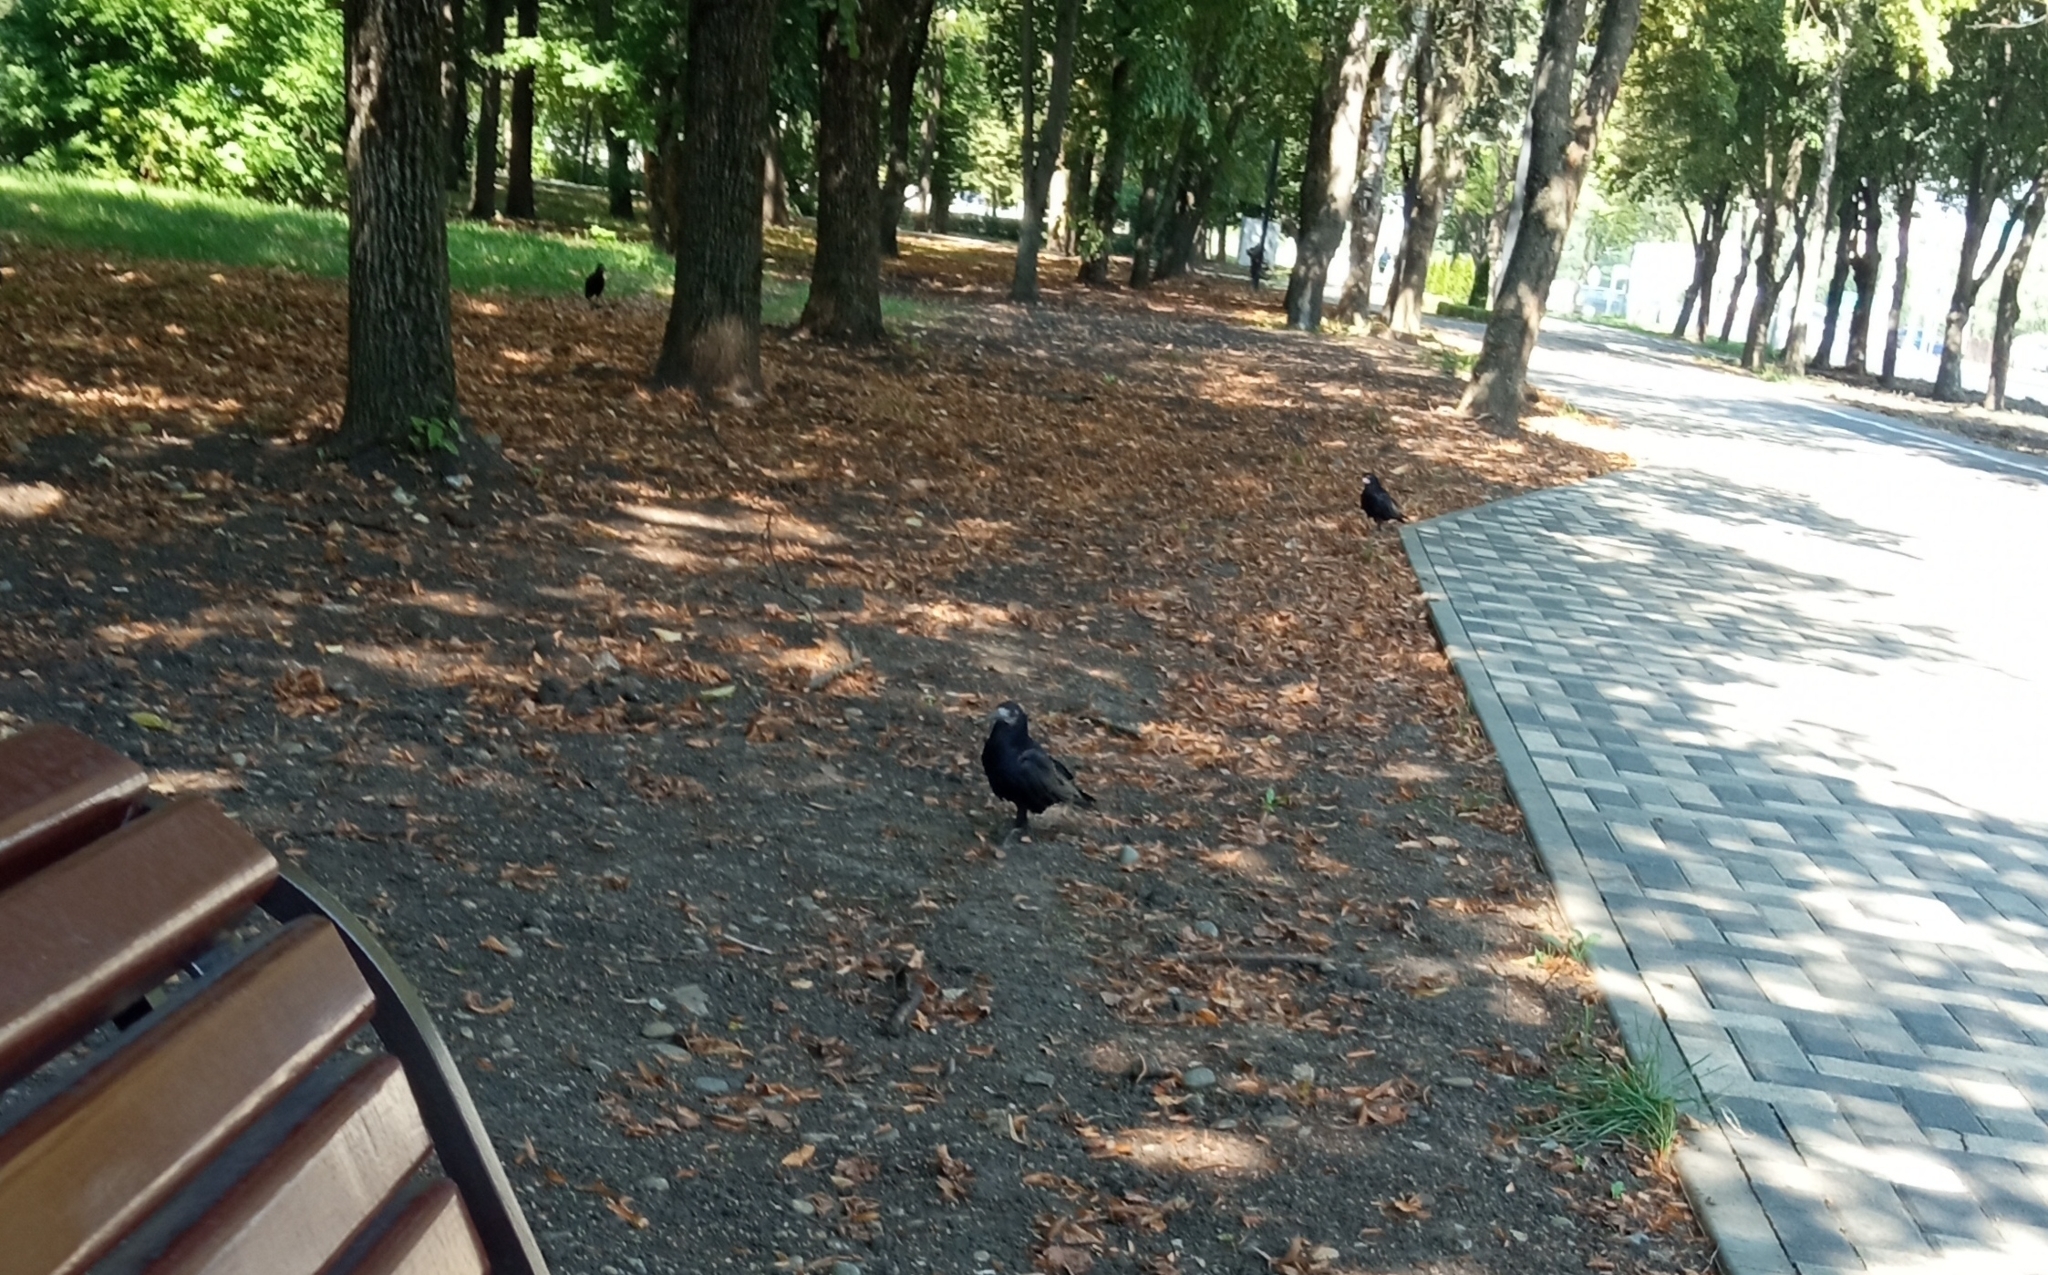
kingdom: Animalia
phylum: Chordata
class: Aves
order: Passeriformes
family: Corvidae
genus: Corvus
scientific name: Corvus frugilegus
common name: Rook
